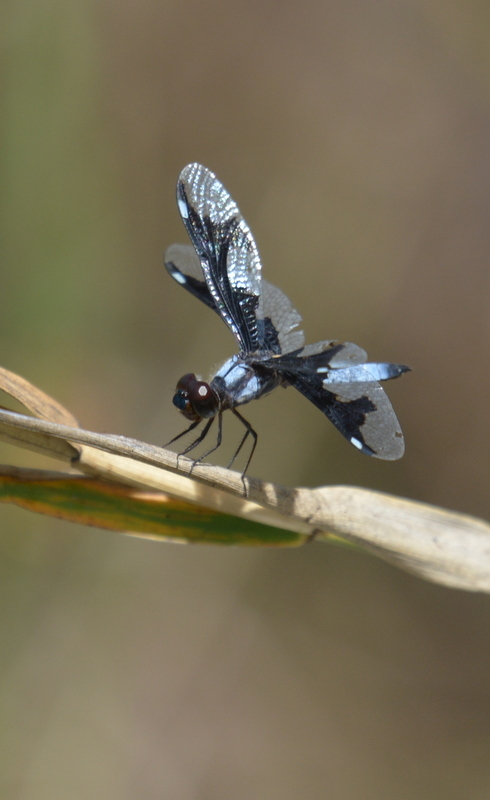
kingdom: Animalia
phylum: Arthropoda
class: Insecta
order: Odonata
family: Libellulidae
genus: Palpopleura
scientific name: Palpopleura portia
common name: Portia widow
